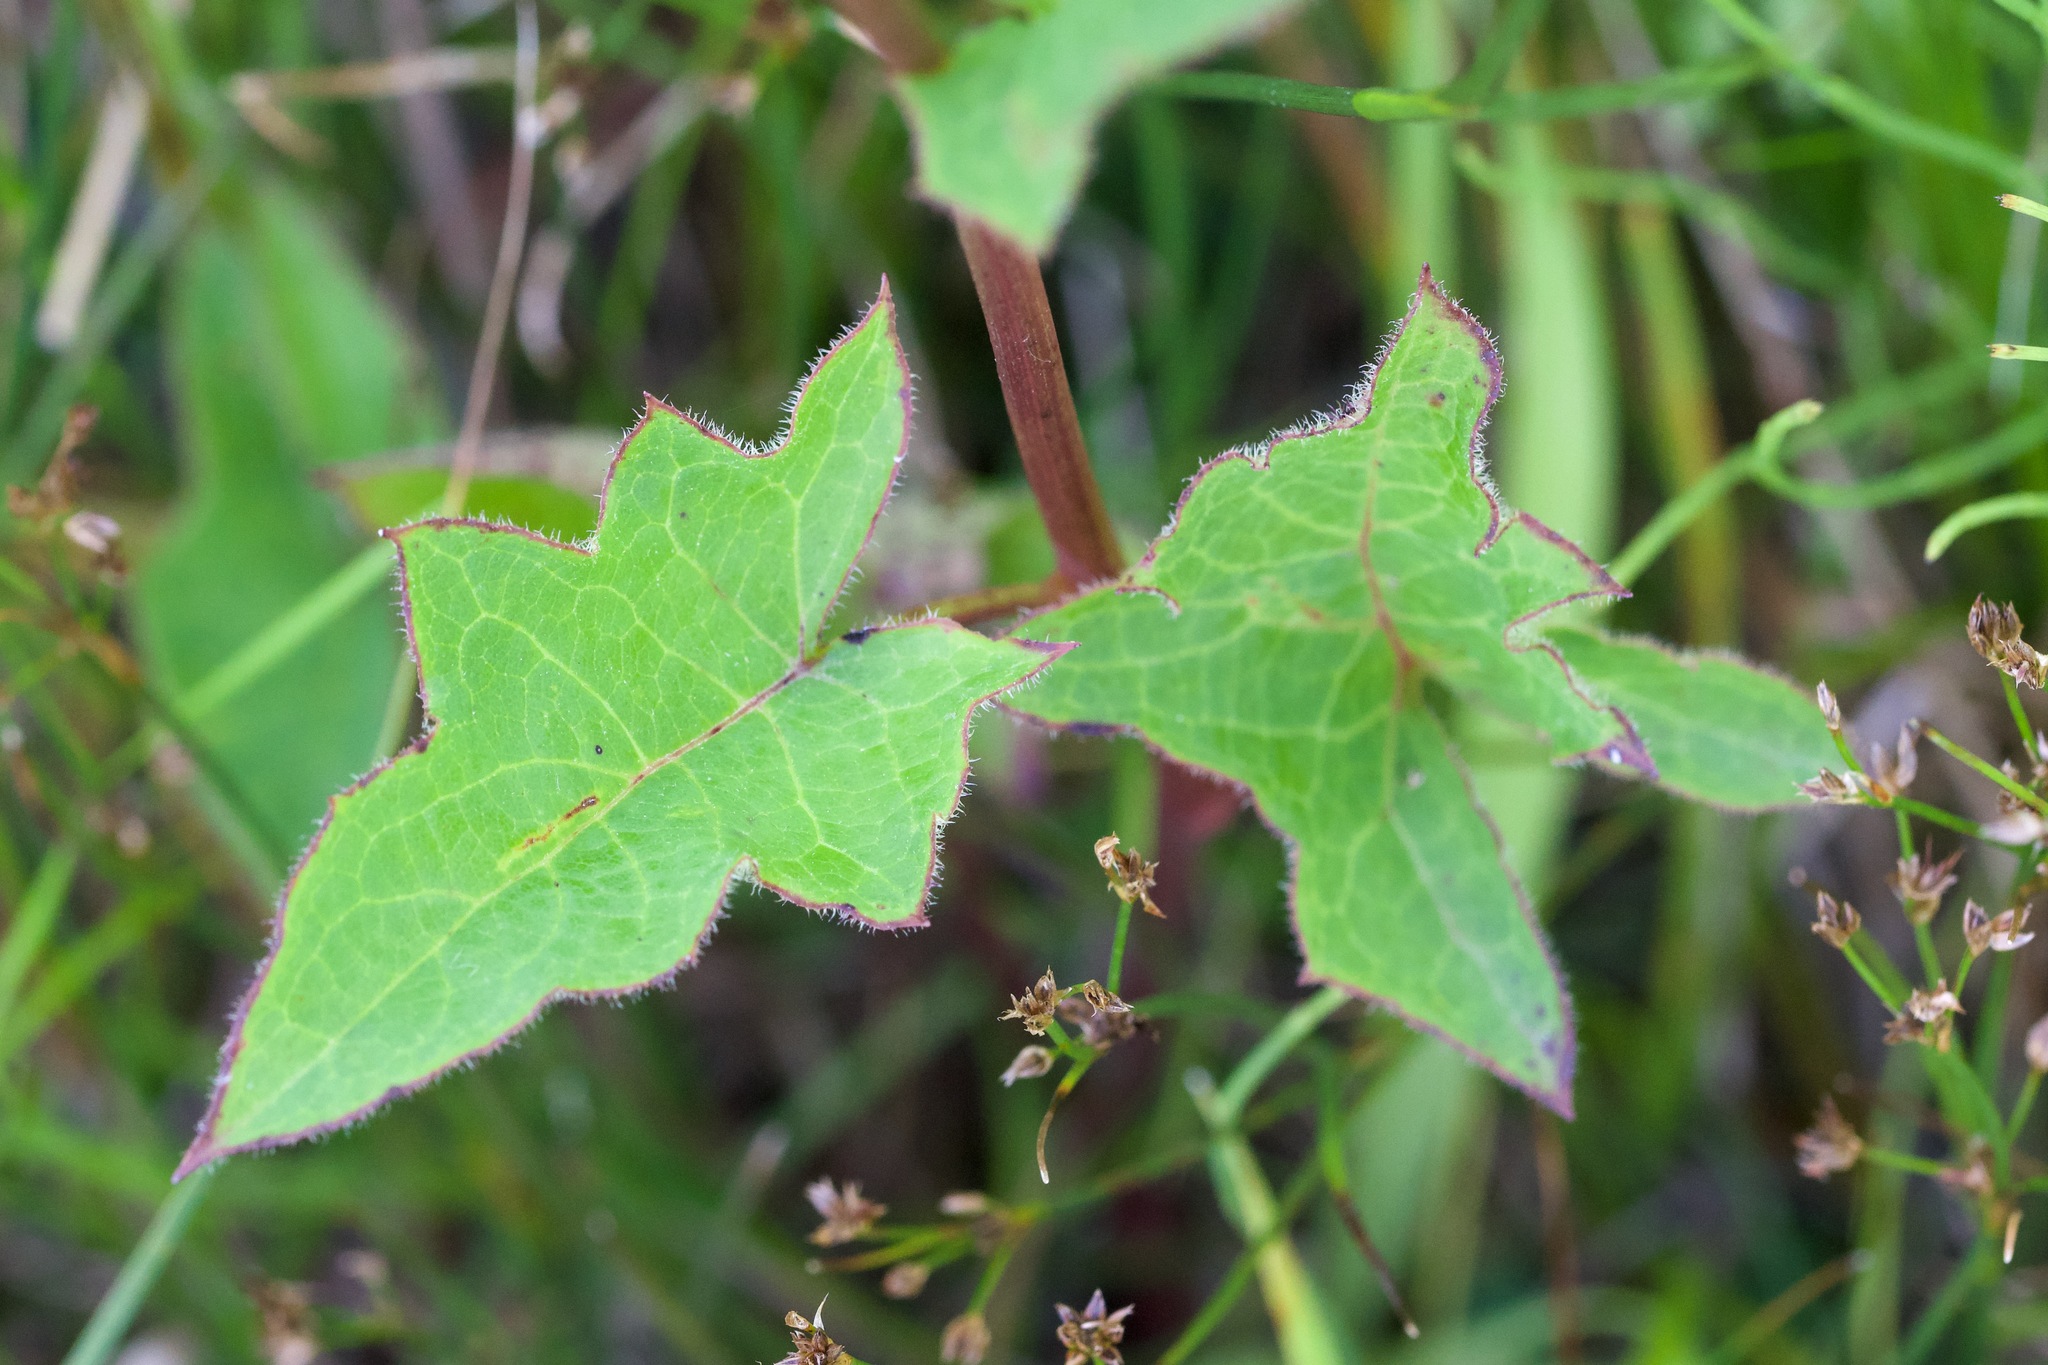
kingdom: Plantae
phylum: Tracheophyta
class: Magnoliopsida
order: Asterales
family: Asteraceae
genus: Nabalus
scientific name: Nabalus albus
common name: White rattlesnakeroot
